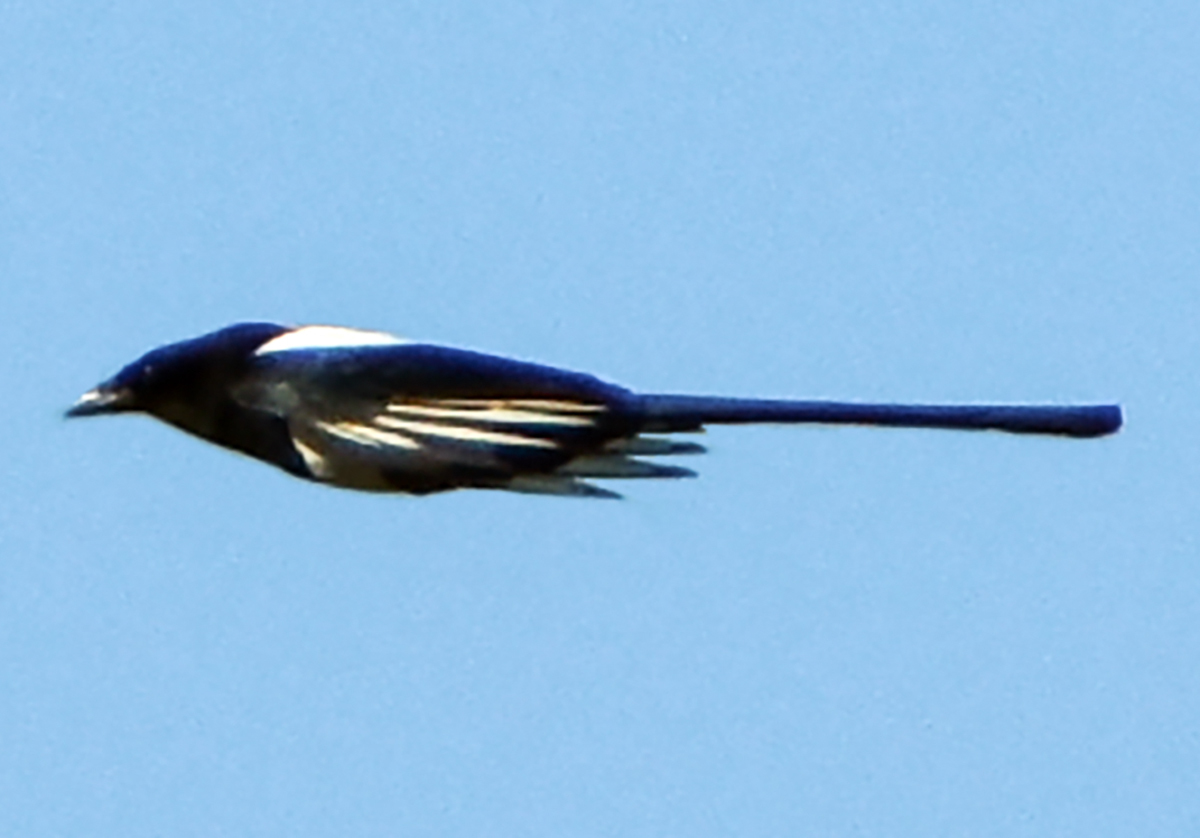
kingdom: Animalia
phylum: Chordata
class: Aves
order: Passeriformes
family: Corvidae
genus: Pica
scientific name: Pica pica
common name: Eurasian magpie
